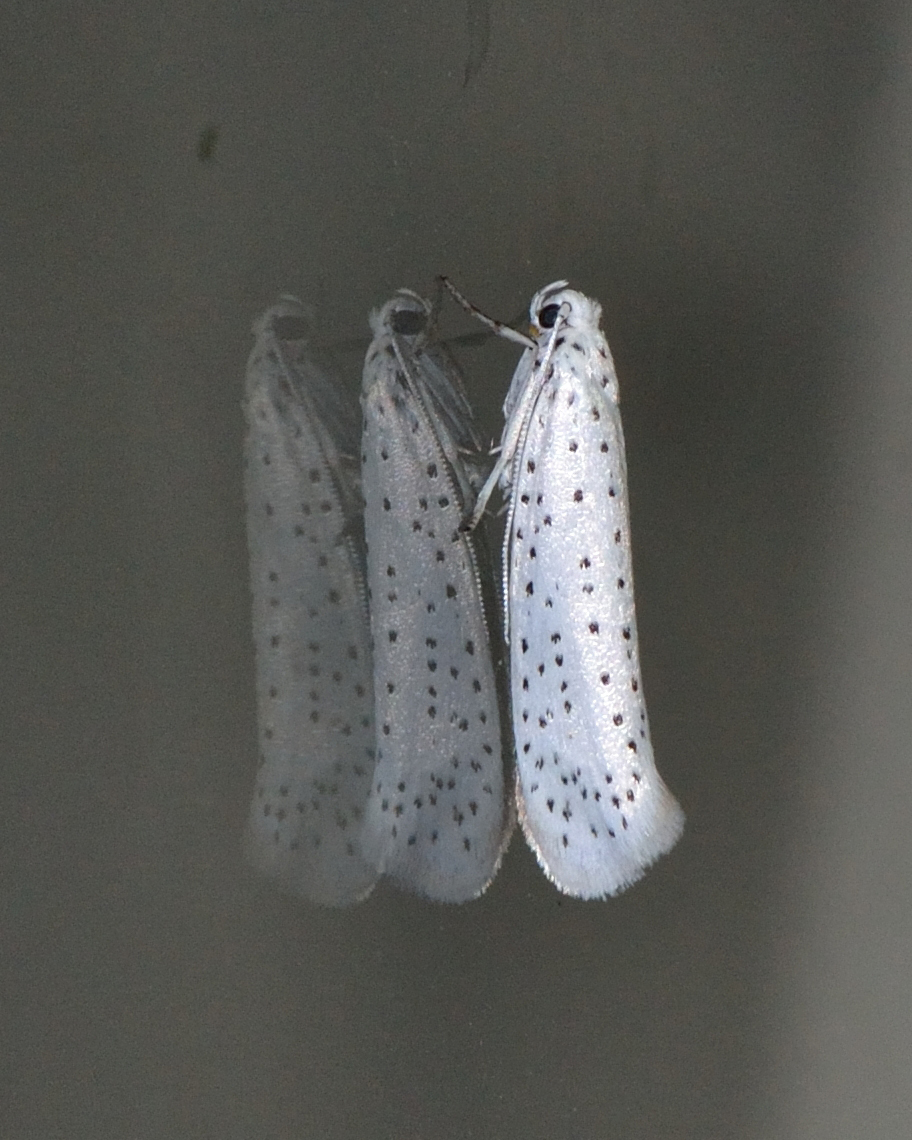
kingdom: Animalia
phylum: Arthropoda
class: Insecta
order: Lepidoptera
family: Yponomeutidae
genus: Yponomeuta
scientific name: Yponomeuta evonymella
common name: Bird-cherry ermine
